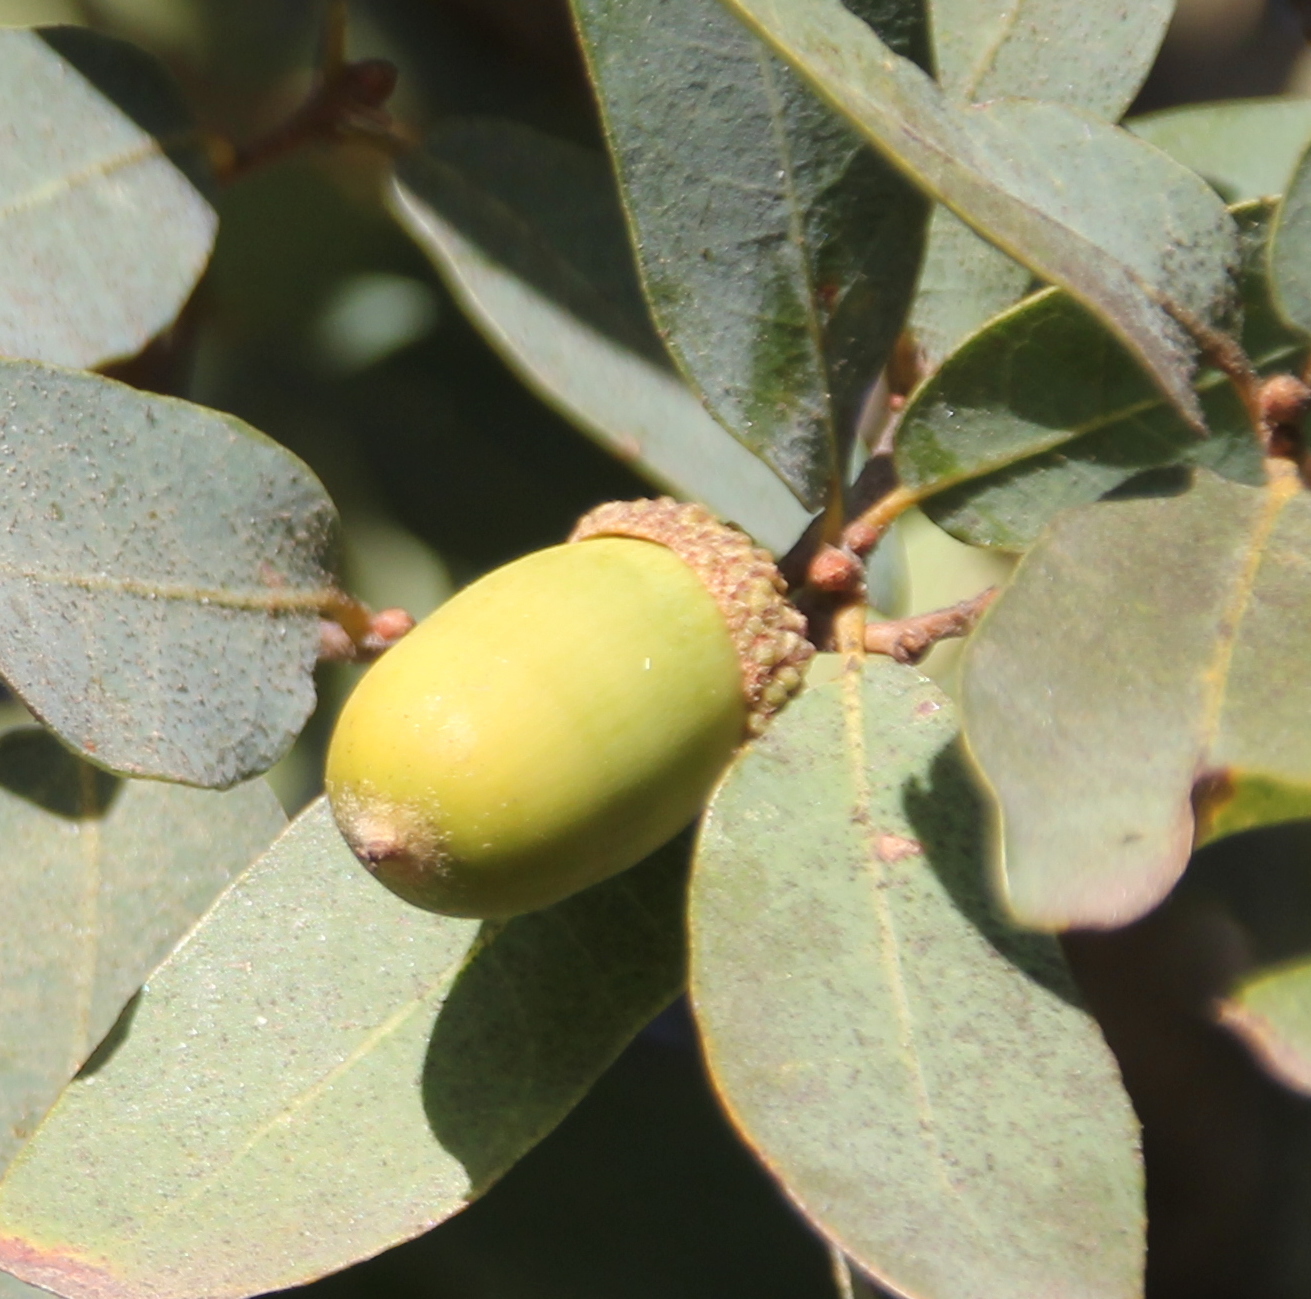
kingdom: Plantae
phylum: Tracheophyta
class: Magnoliopsida
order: Fagales
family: Fagaceae
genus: Quercus
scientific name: Quercus engelmannii
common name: Engelmann oak
